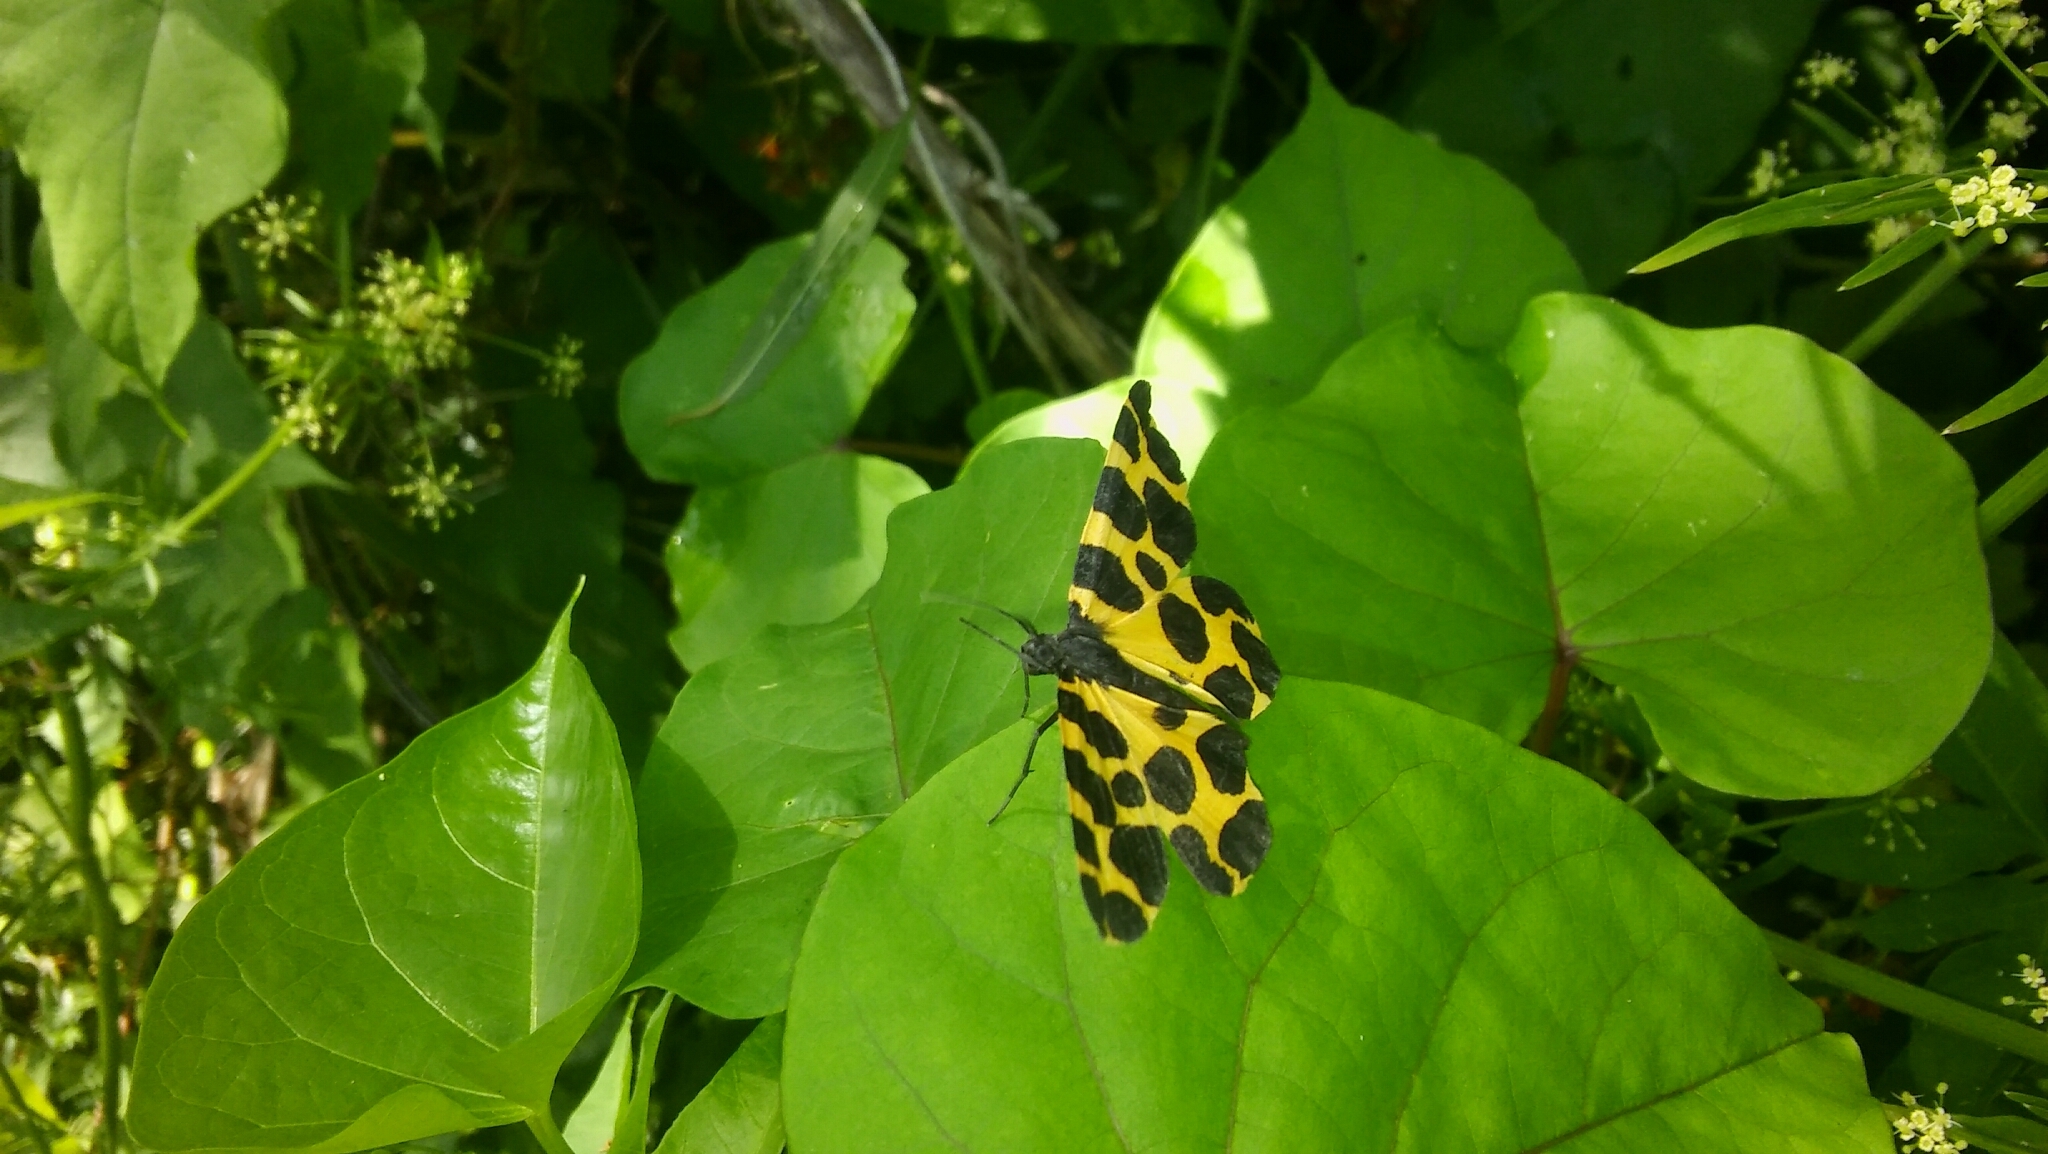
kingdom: Animalia
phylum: Arthropoda
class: Insecta
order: Lepidoptera
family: Geometridae
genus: Pantherodes
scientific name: Pantherodes leonaria
